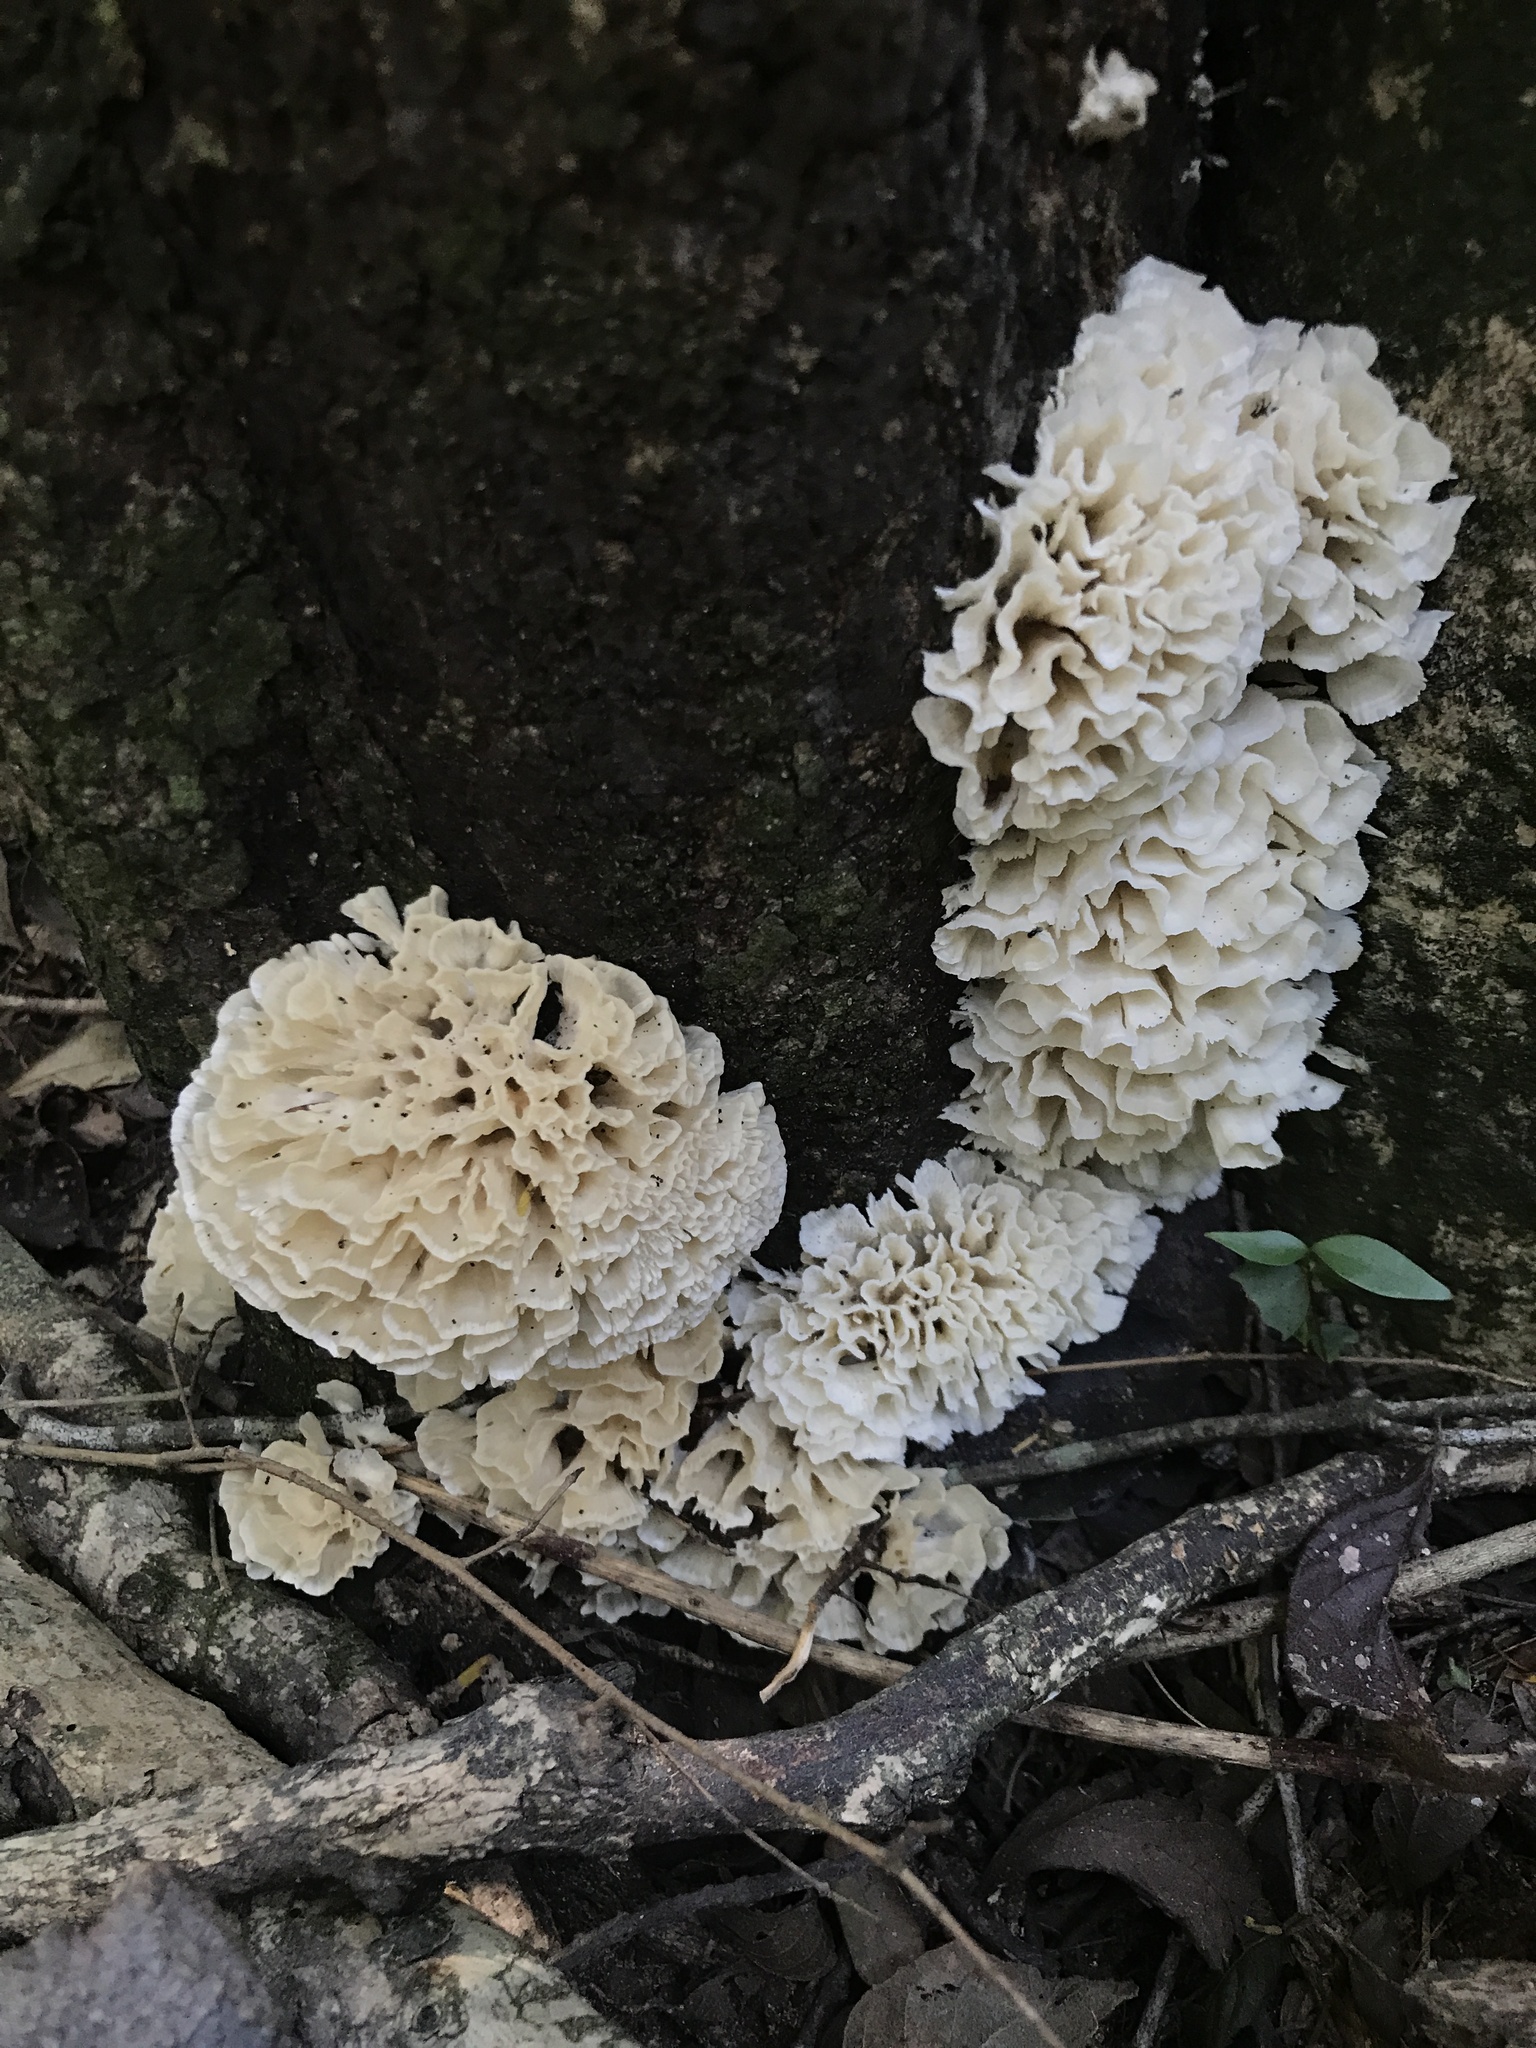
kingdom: Fungi
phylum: Basidiomycota
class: Agaricomycetes
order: Polyporales
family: Irpicaceae
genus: Irpex
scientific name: Irpex rosettiformis
